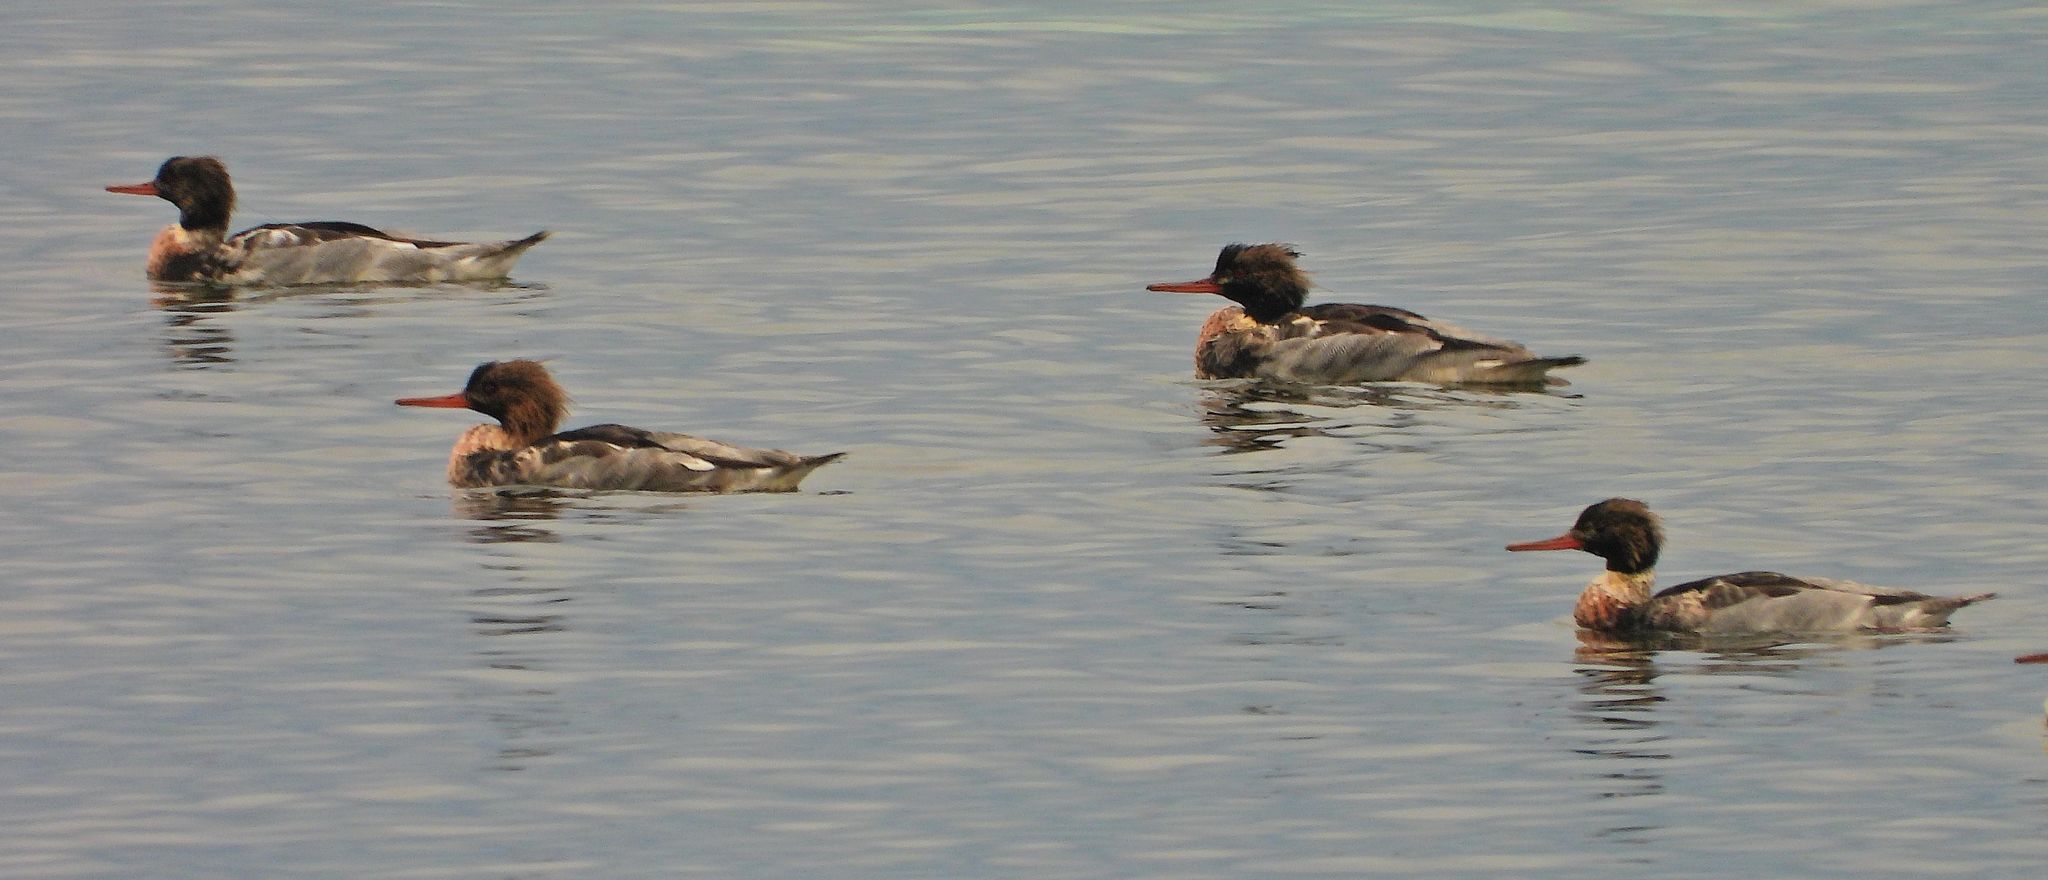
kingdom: Animalia
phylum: Chordata
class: Aves
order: Anseriformes
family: Anatidae
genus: Mergus
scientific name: Mergus serrator
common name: Red-breasted merganser
